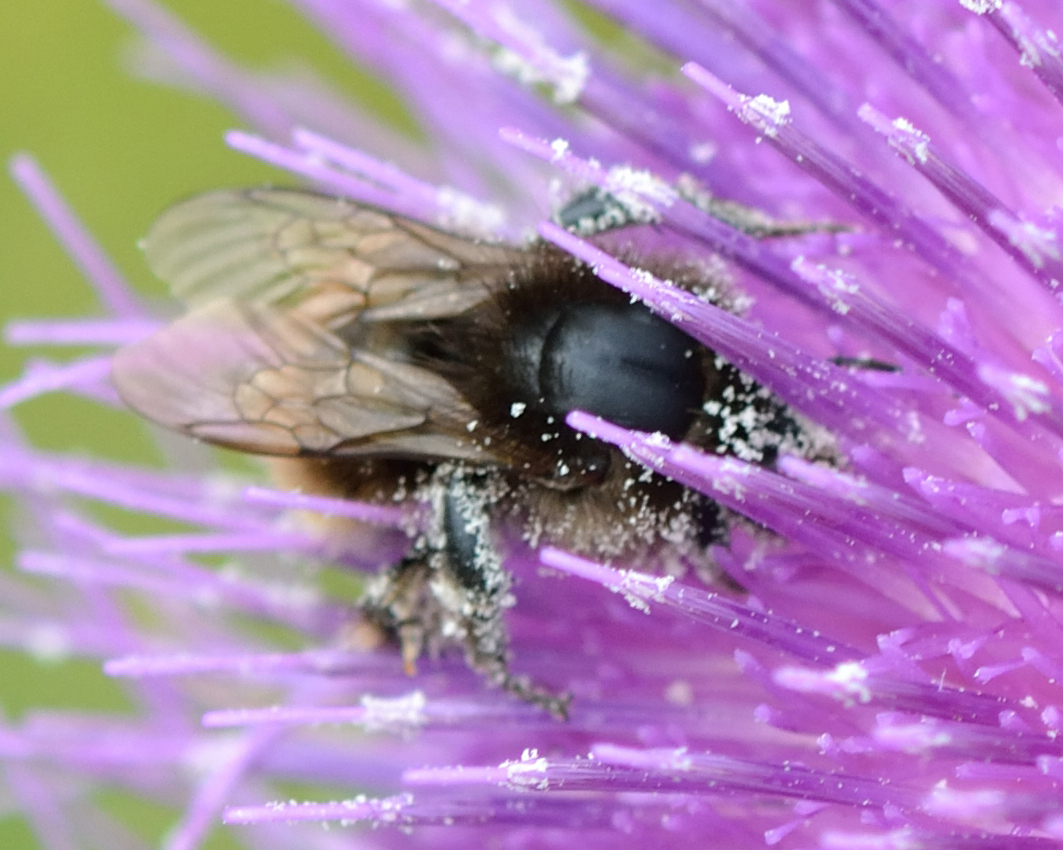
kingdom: Animalia
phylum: Arthropoda
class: Insecta
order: Hymenoptera
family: Apidae
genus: Bombus
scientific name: Bombus humilis
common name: Brown-banded carder-bee
